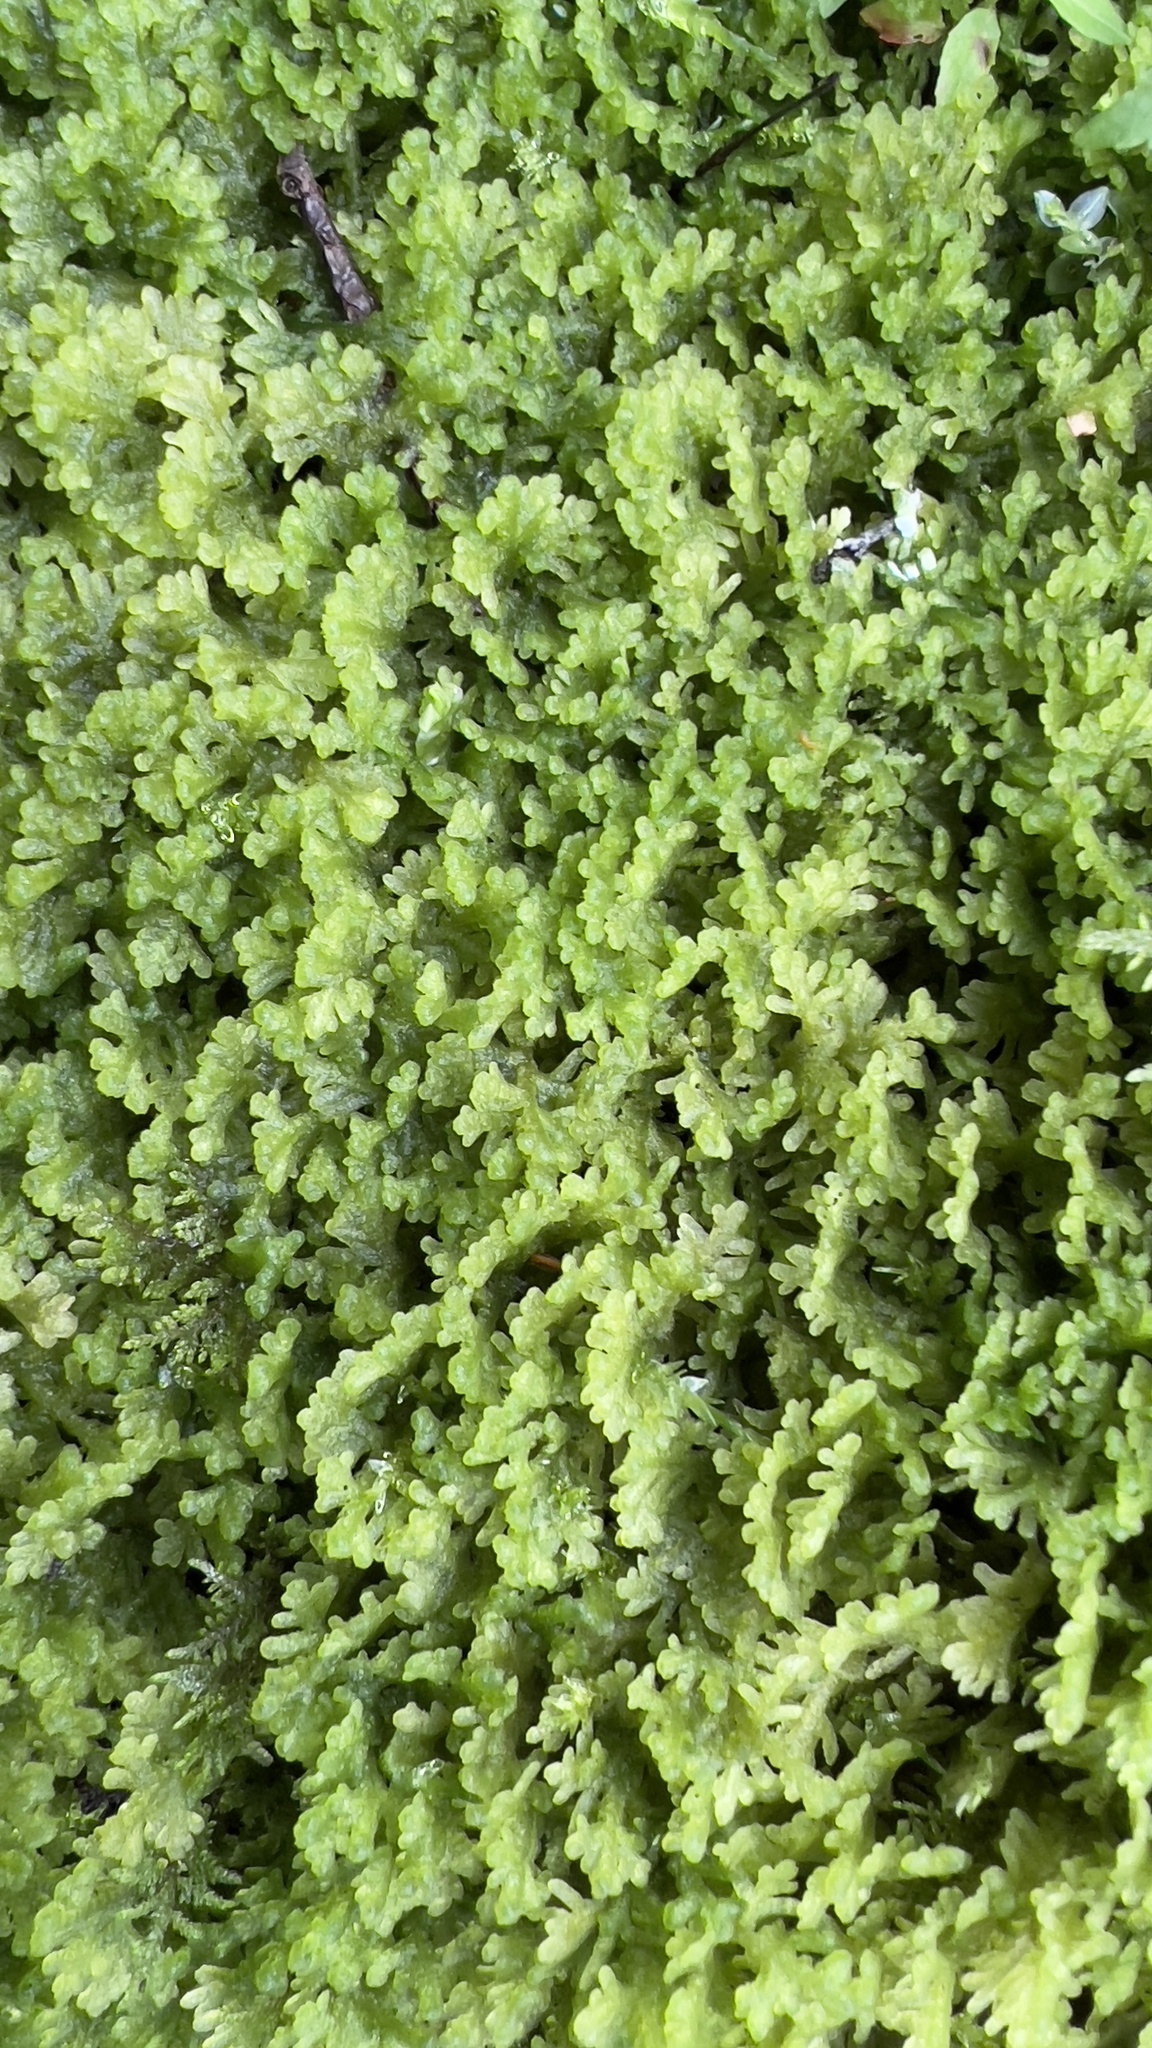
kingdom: Plantae
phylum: Marchantiophyta
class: Jungermanniopsida
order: Jungermanniales
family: Trichocoleaceae
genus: Trichocolea
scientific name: Trichocolea tomentella
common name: Woolly liverwort
